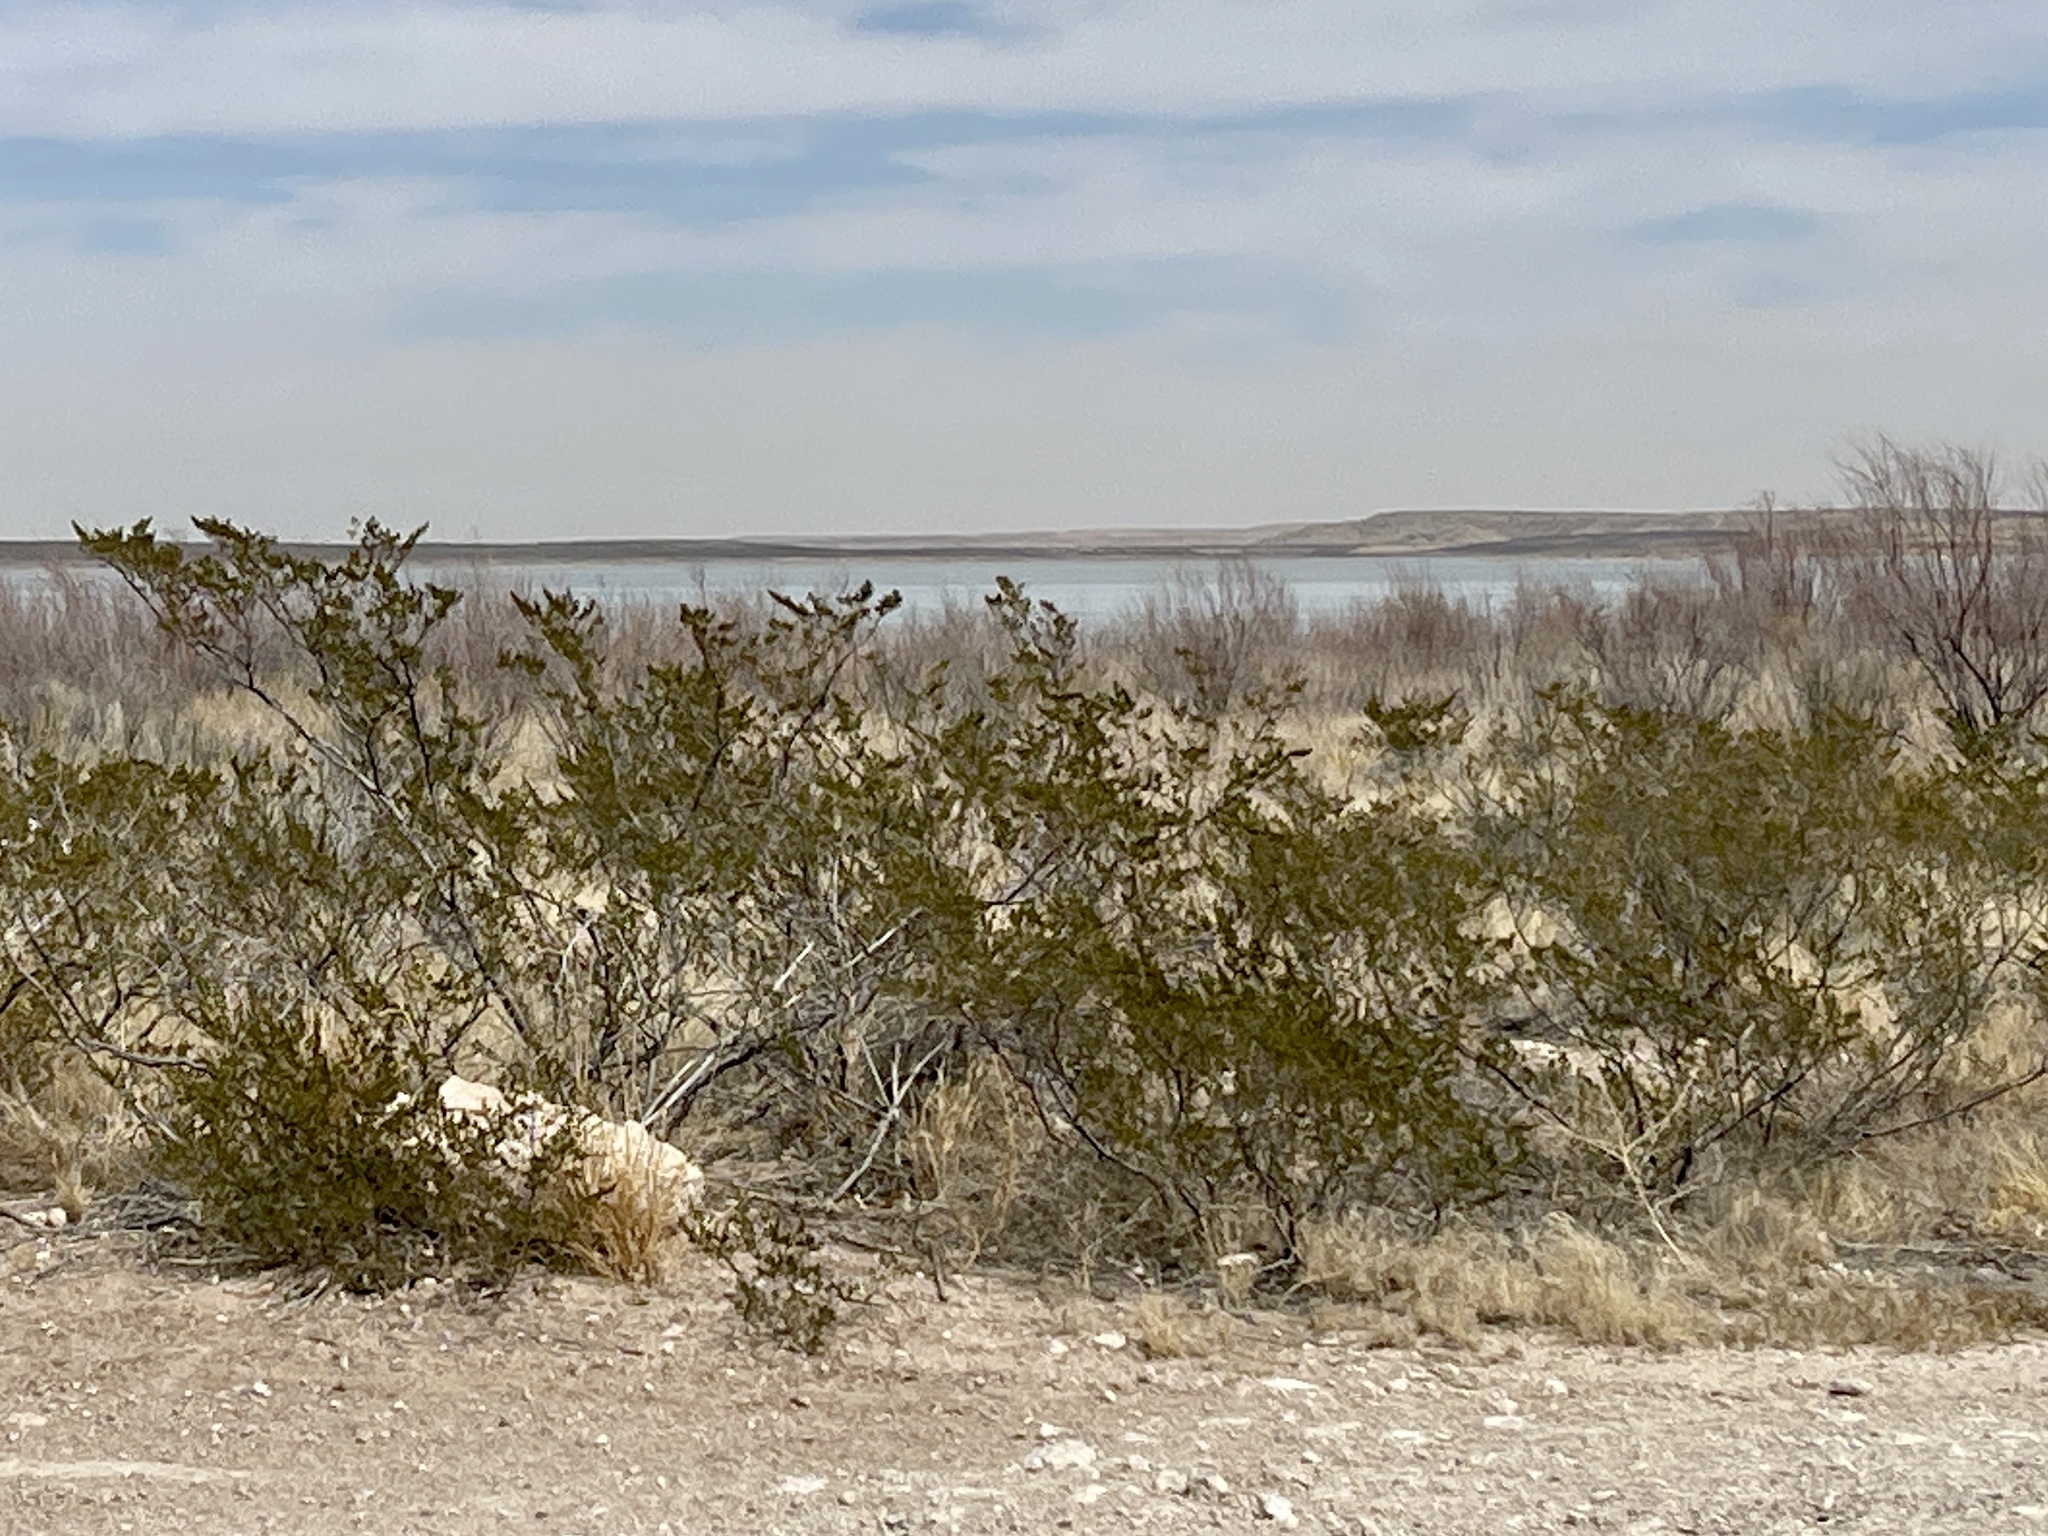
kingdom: Plantae
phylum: Tracheophyta
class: Magnoliopsida
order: Zygophyllales
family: Zygophyllaceae
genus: Larrea
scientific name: Larrea tridentata
